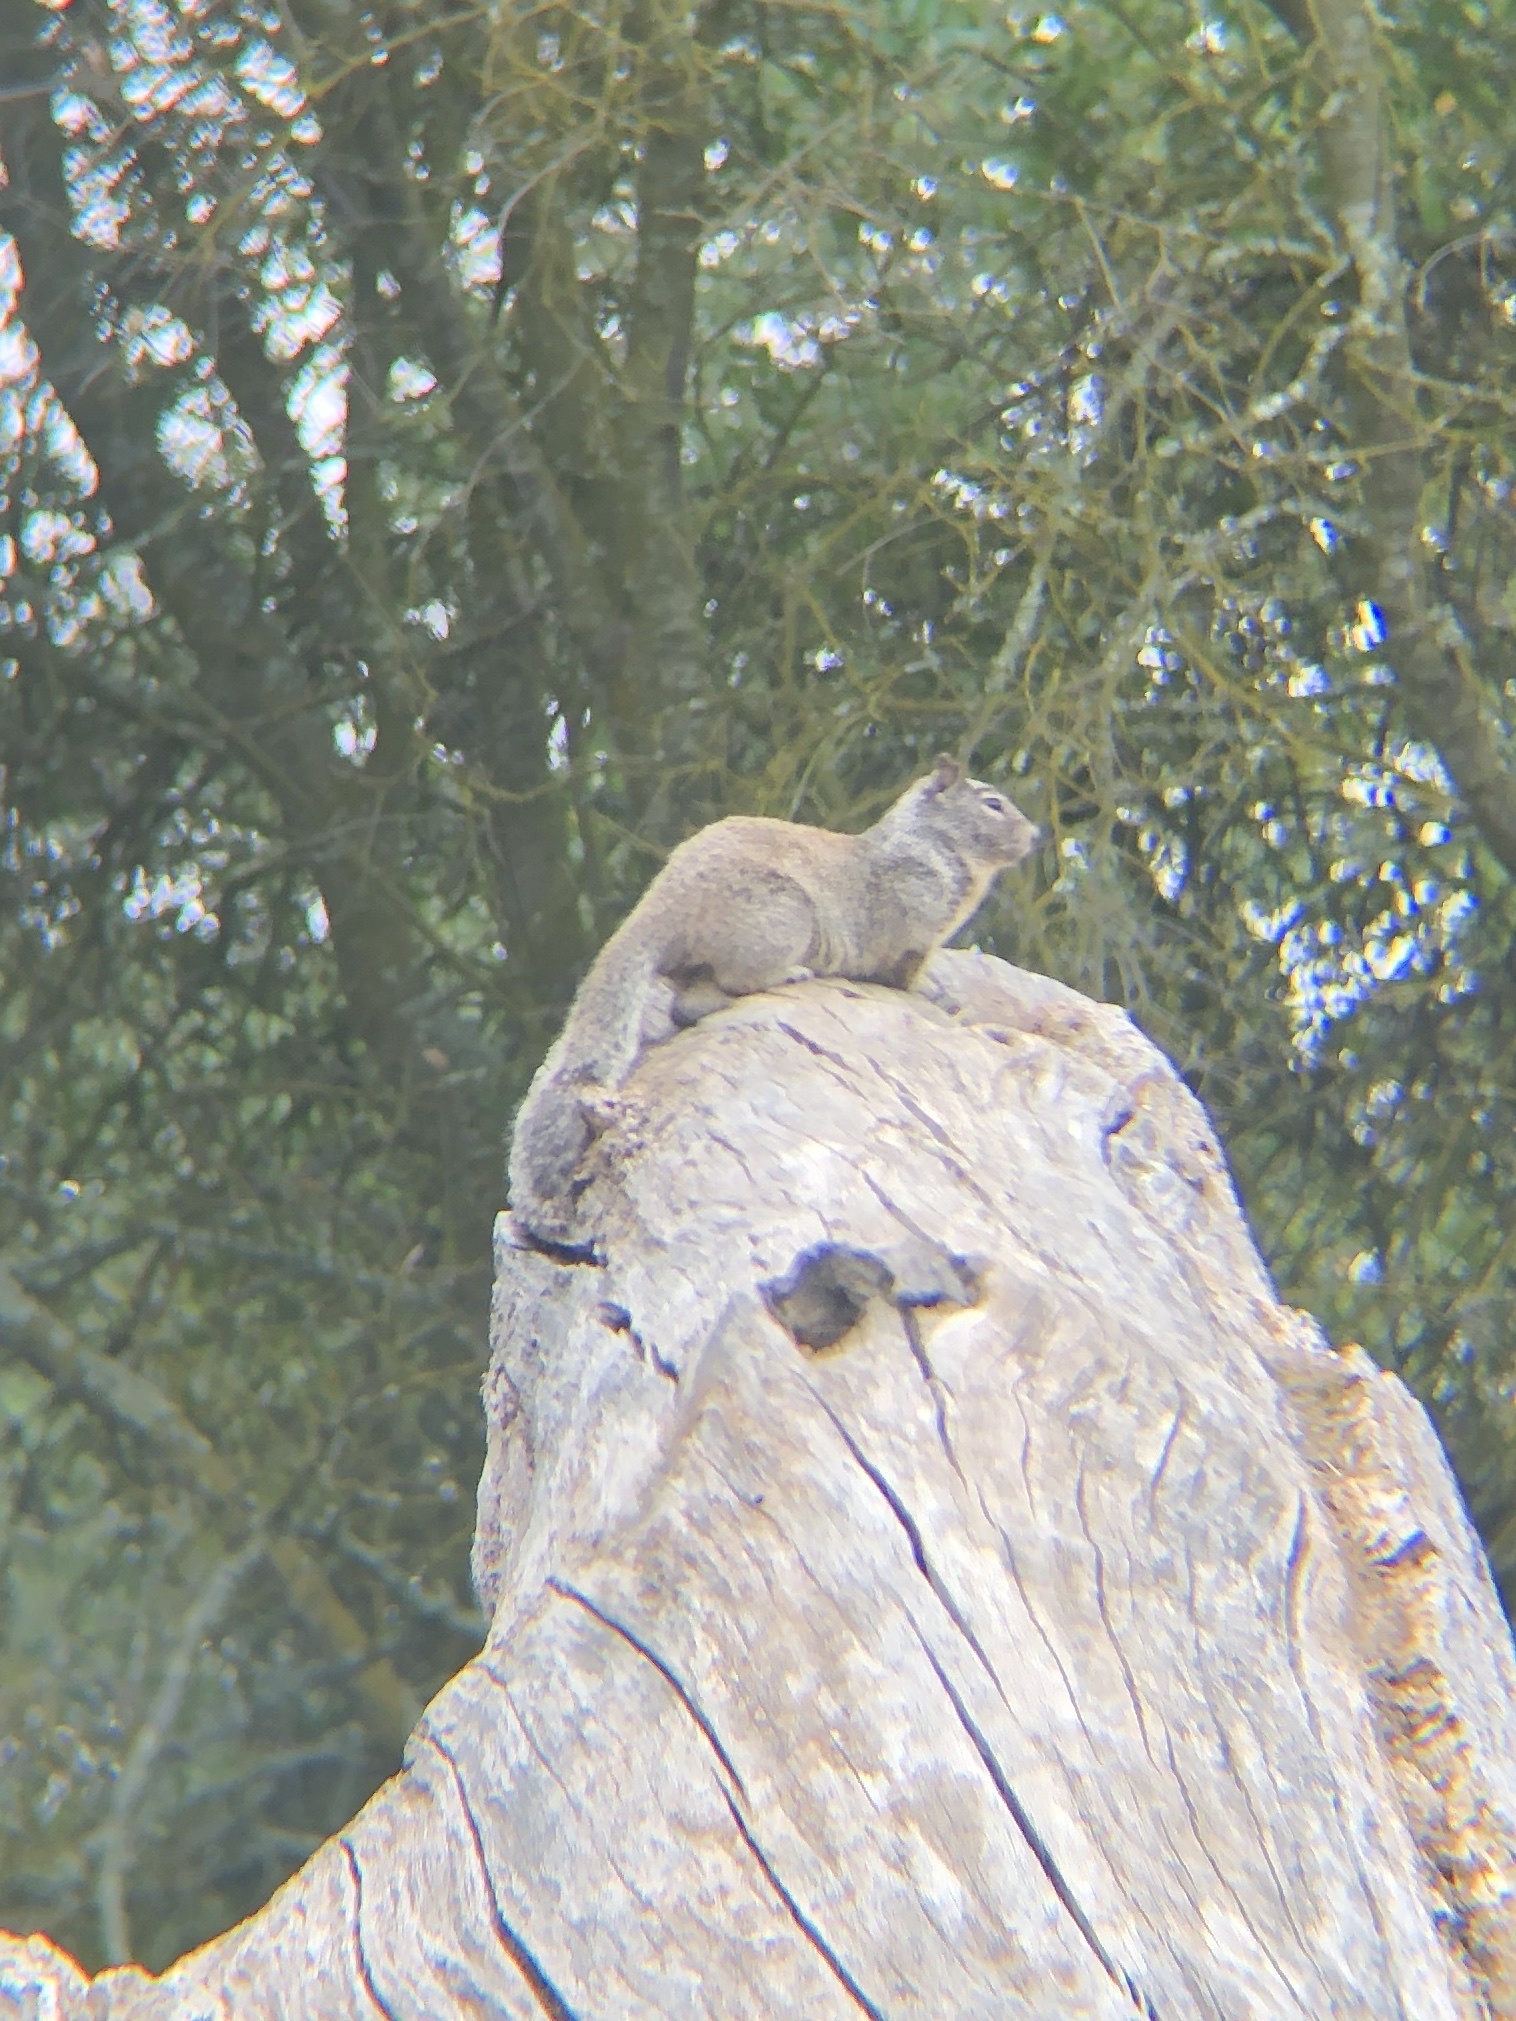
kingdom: Animalia
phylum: Chordata
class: Mammalia
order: Rodentia
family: Sciuridae
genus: Otospermophilus
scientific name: Otospermophilus beecheyi
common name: California ground squirrel
